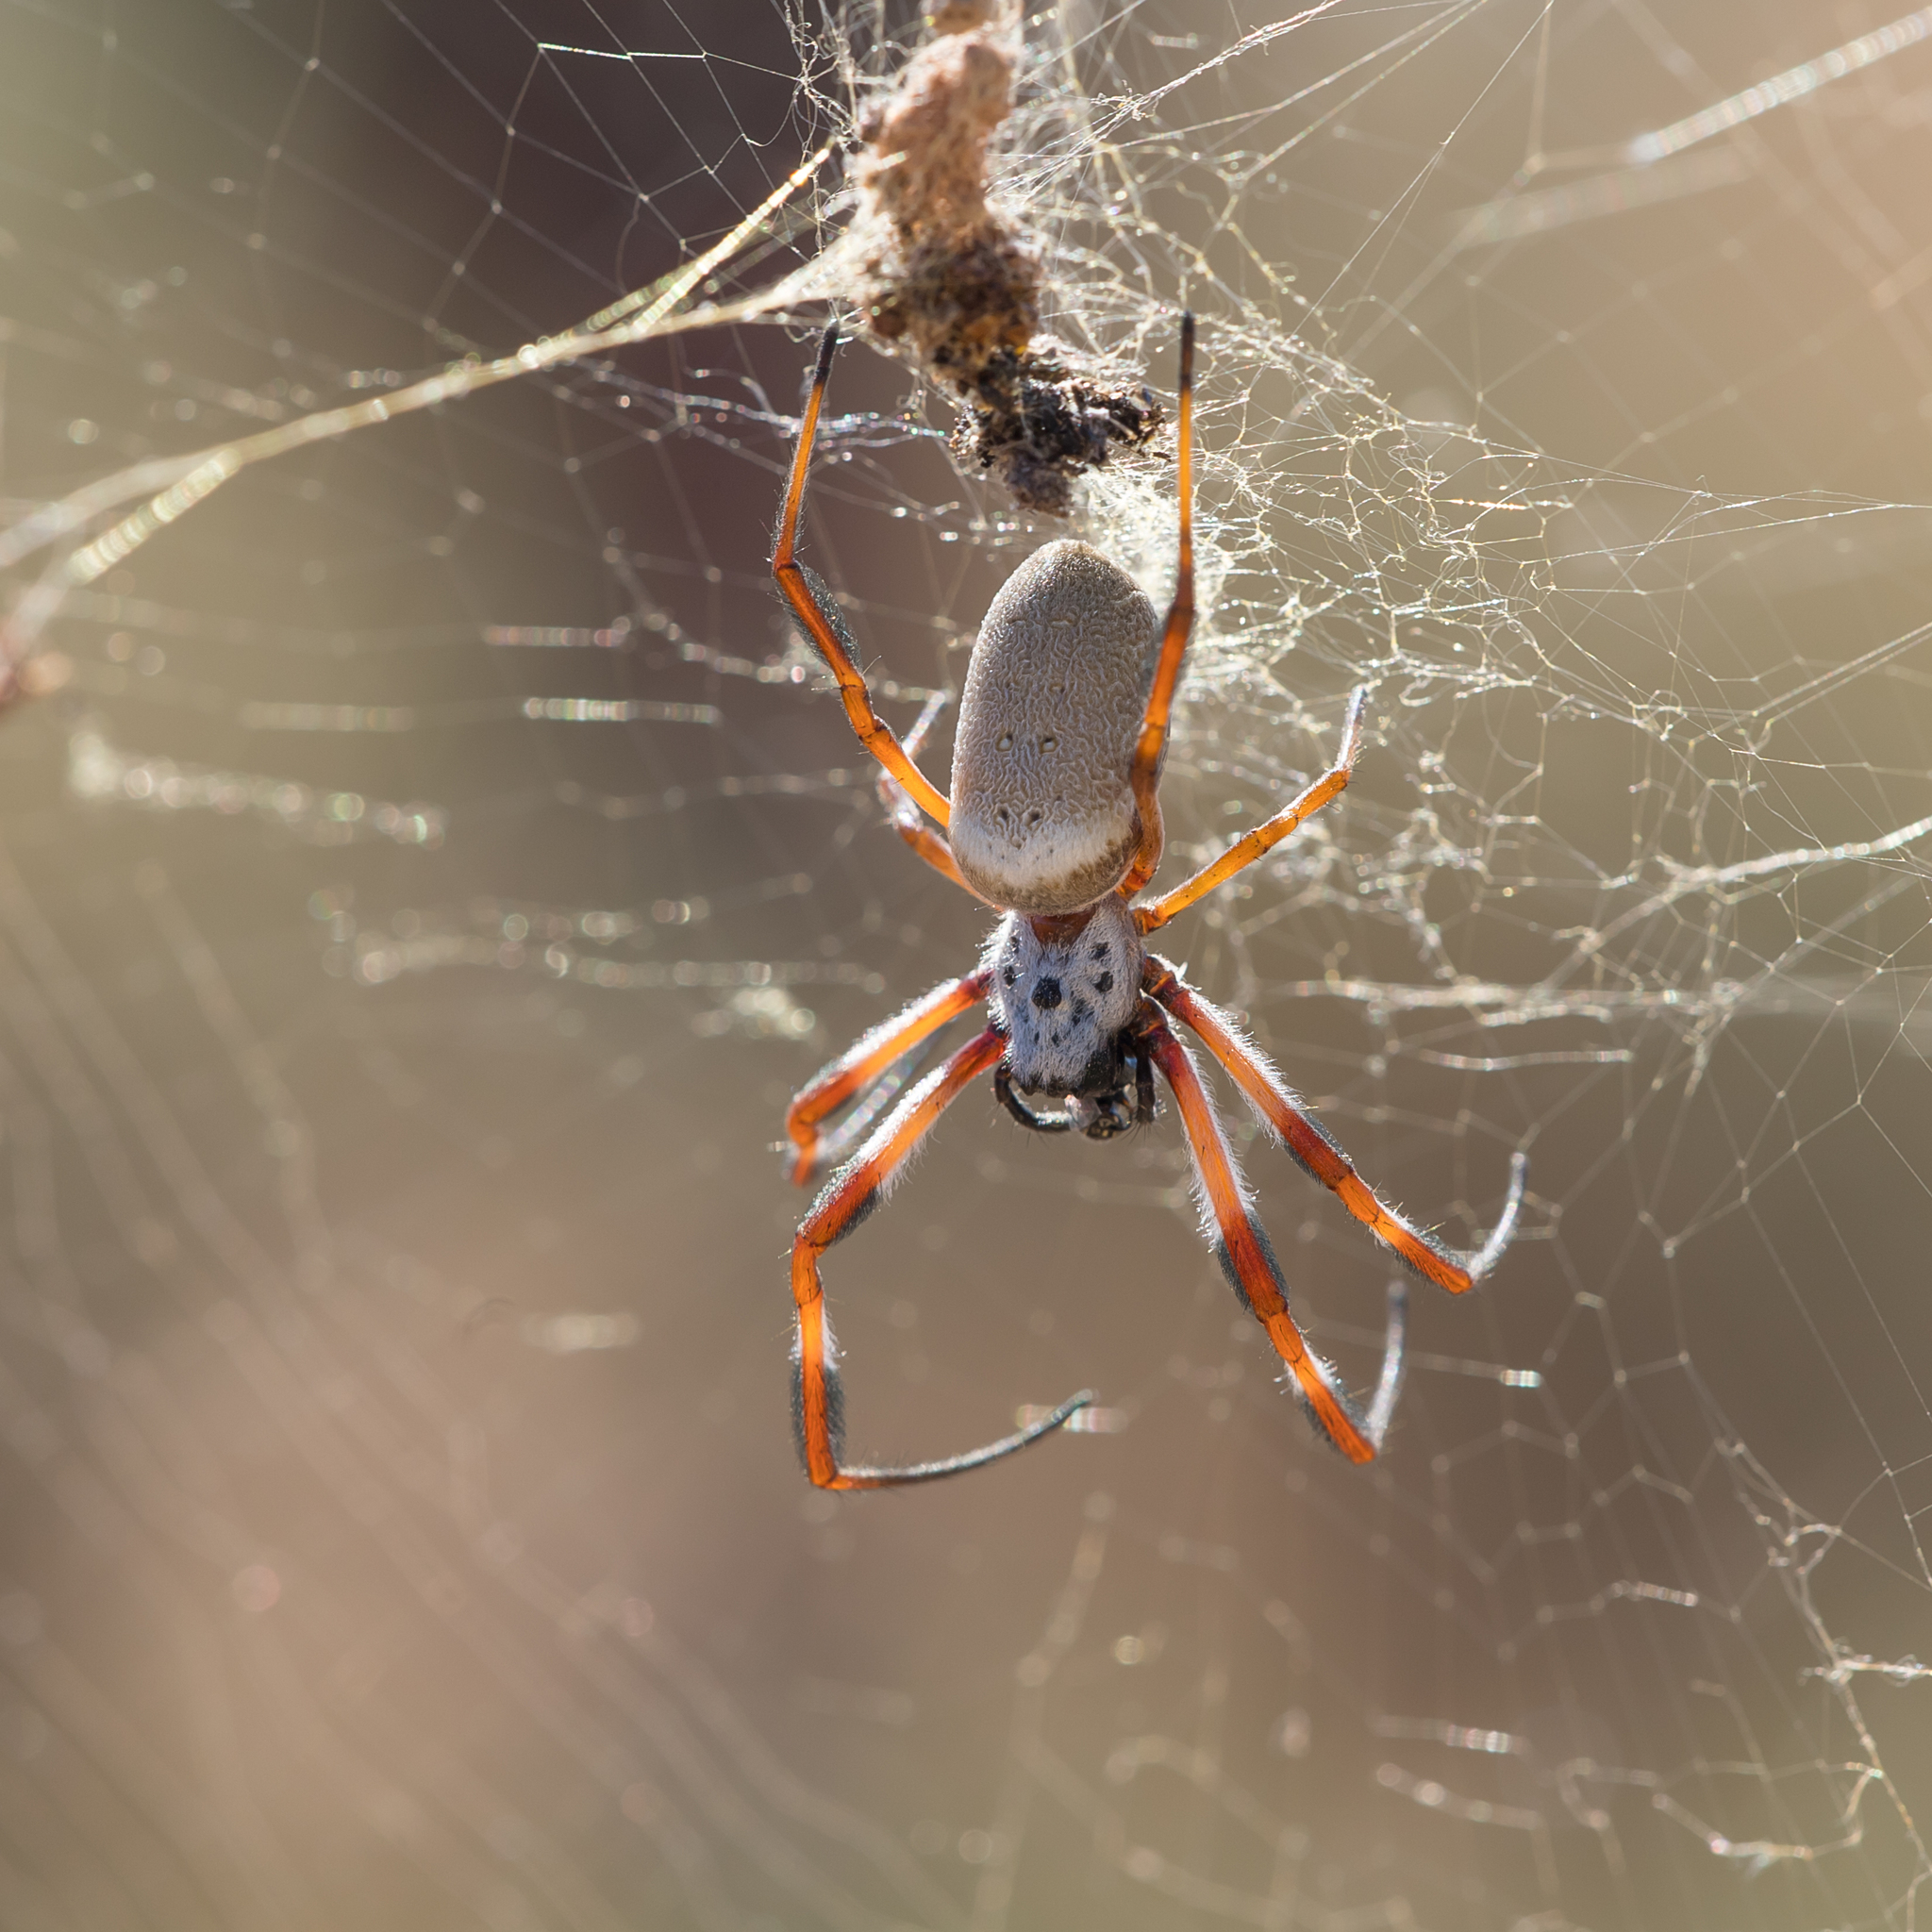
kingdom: Animalia
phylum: Arthropoda
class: Arachnida
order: Araneae
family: Araneidae
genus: Trichonephila
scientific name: Trichonephila edulis
